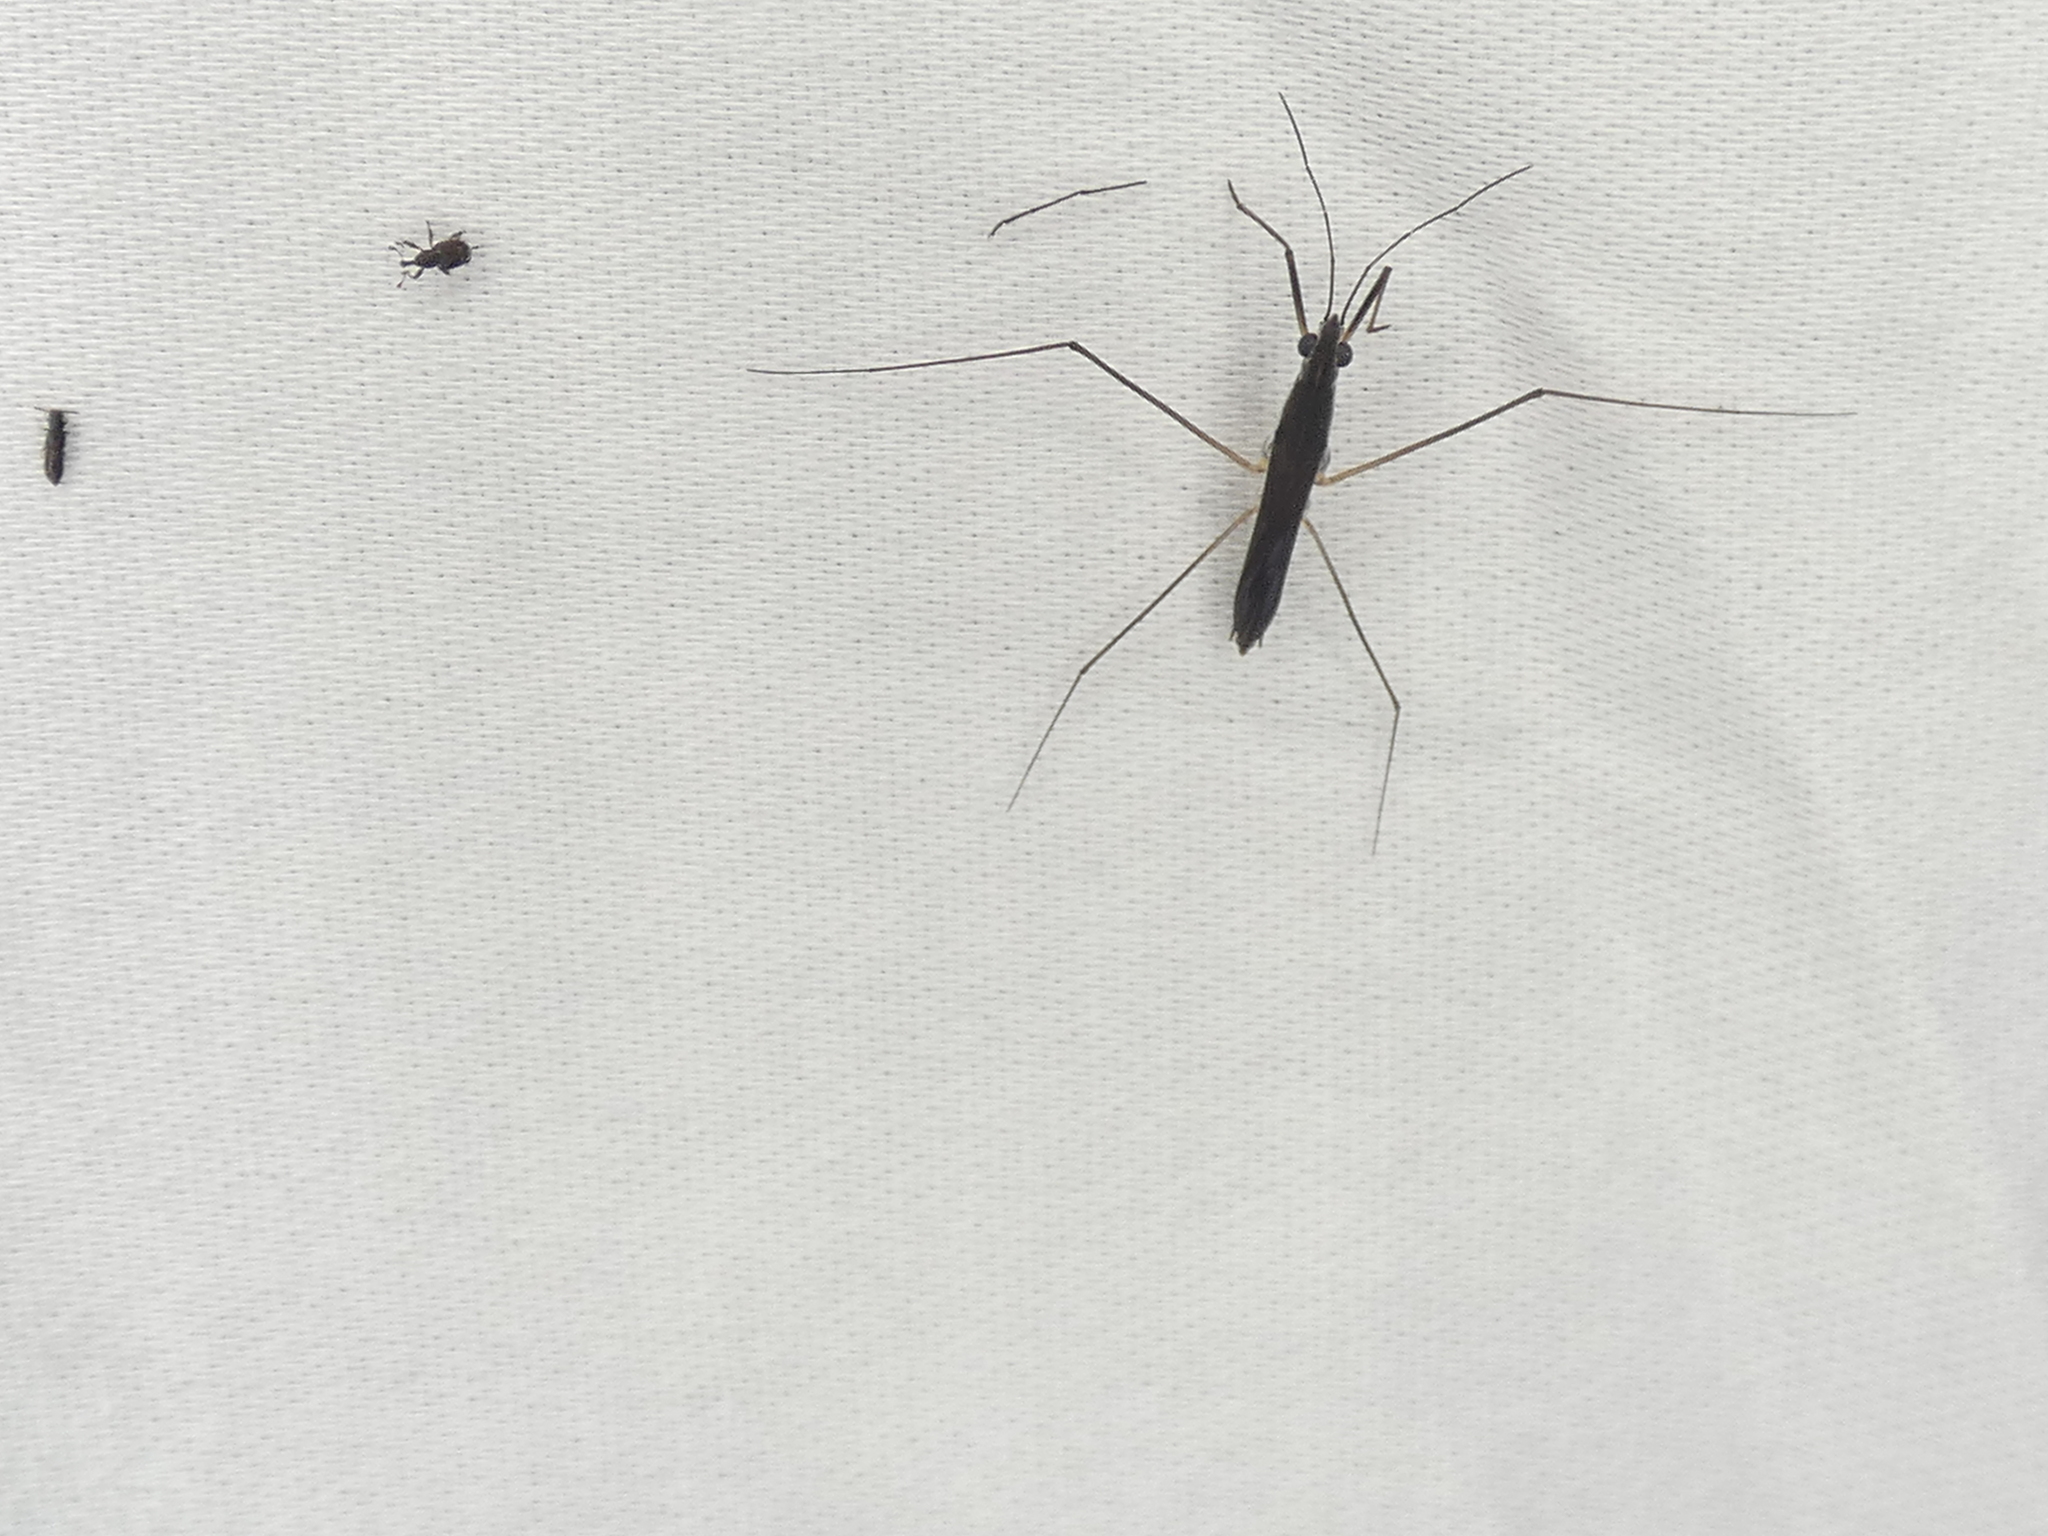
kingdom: Animalia
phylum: Arthropoda
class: Insecta
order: Hemiptera
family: Gerridae
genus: Limnoporus
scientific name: Limnoporus canaliculatus
